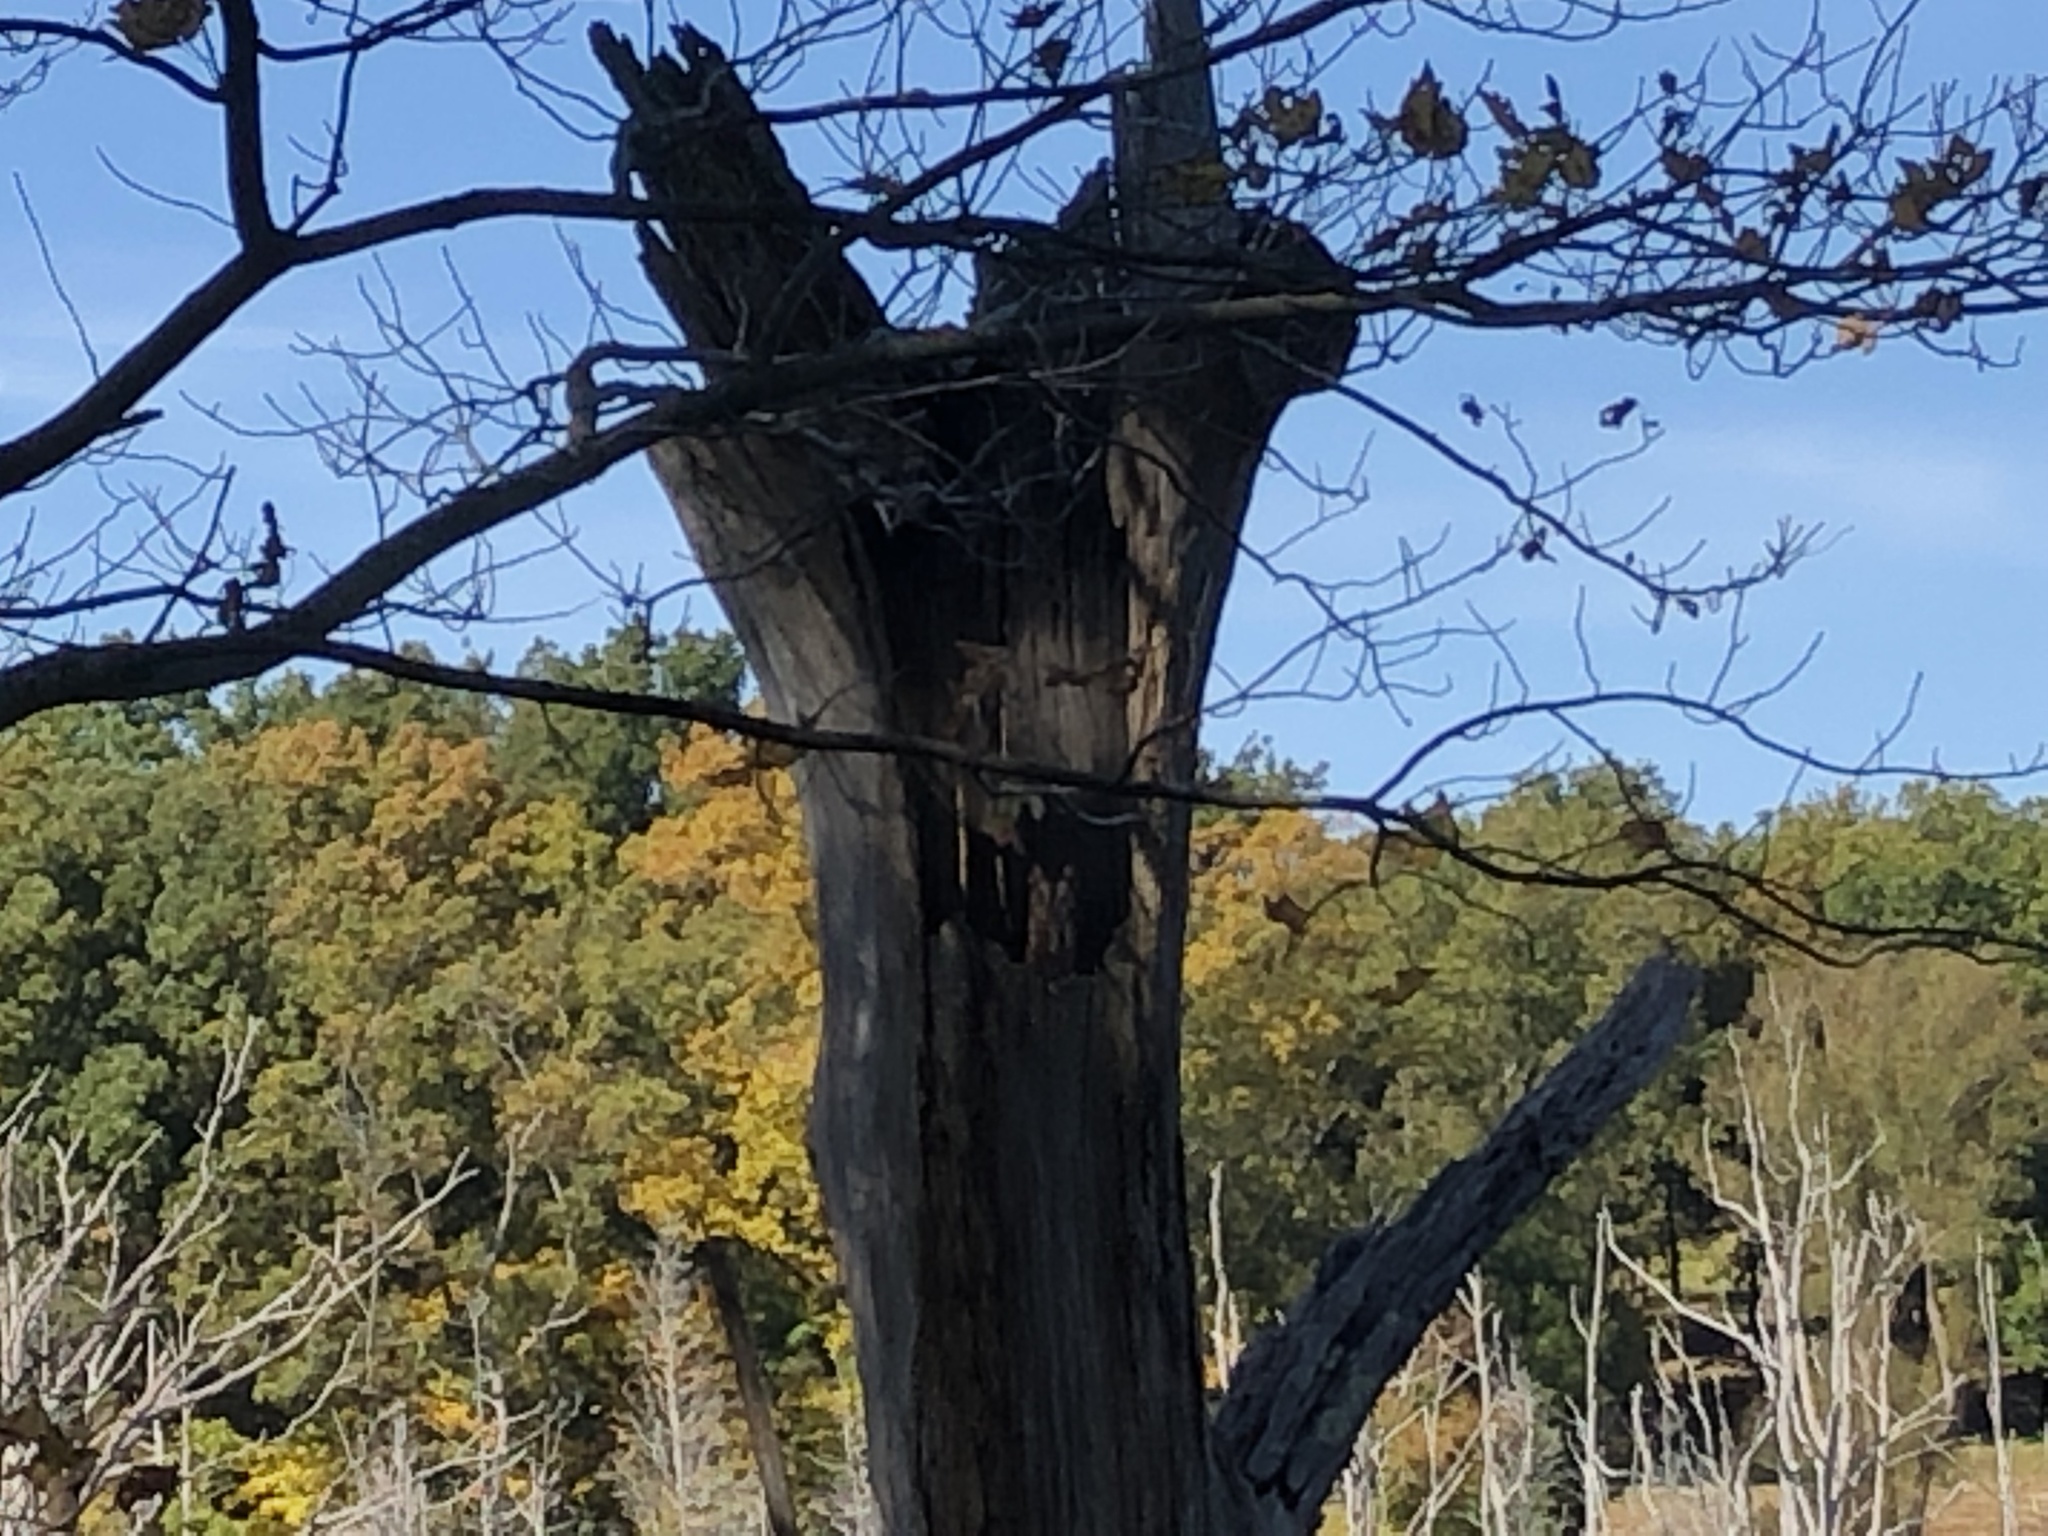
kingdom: Animalia
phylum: Chordata
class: Aves
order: Strigiformes
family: Strigidae
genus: Megascops
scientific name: Megascops asio
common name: Eastern screech-owl
